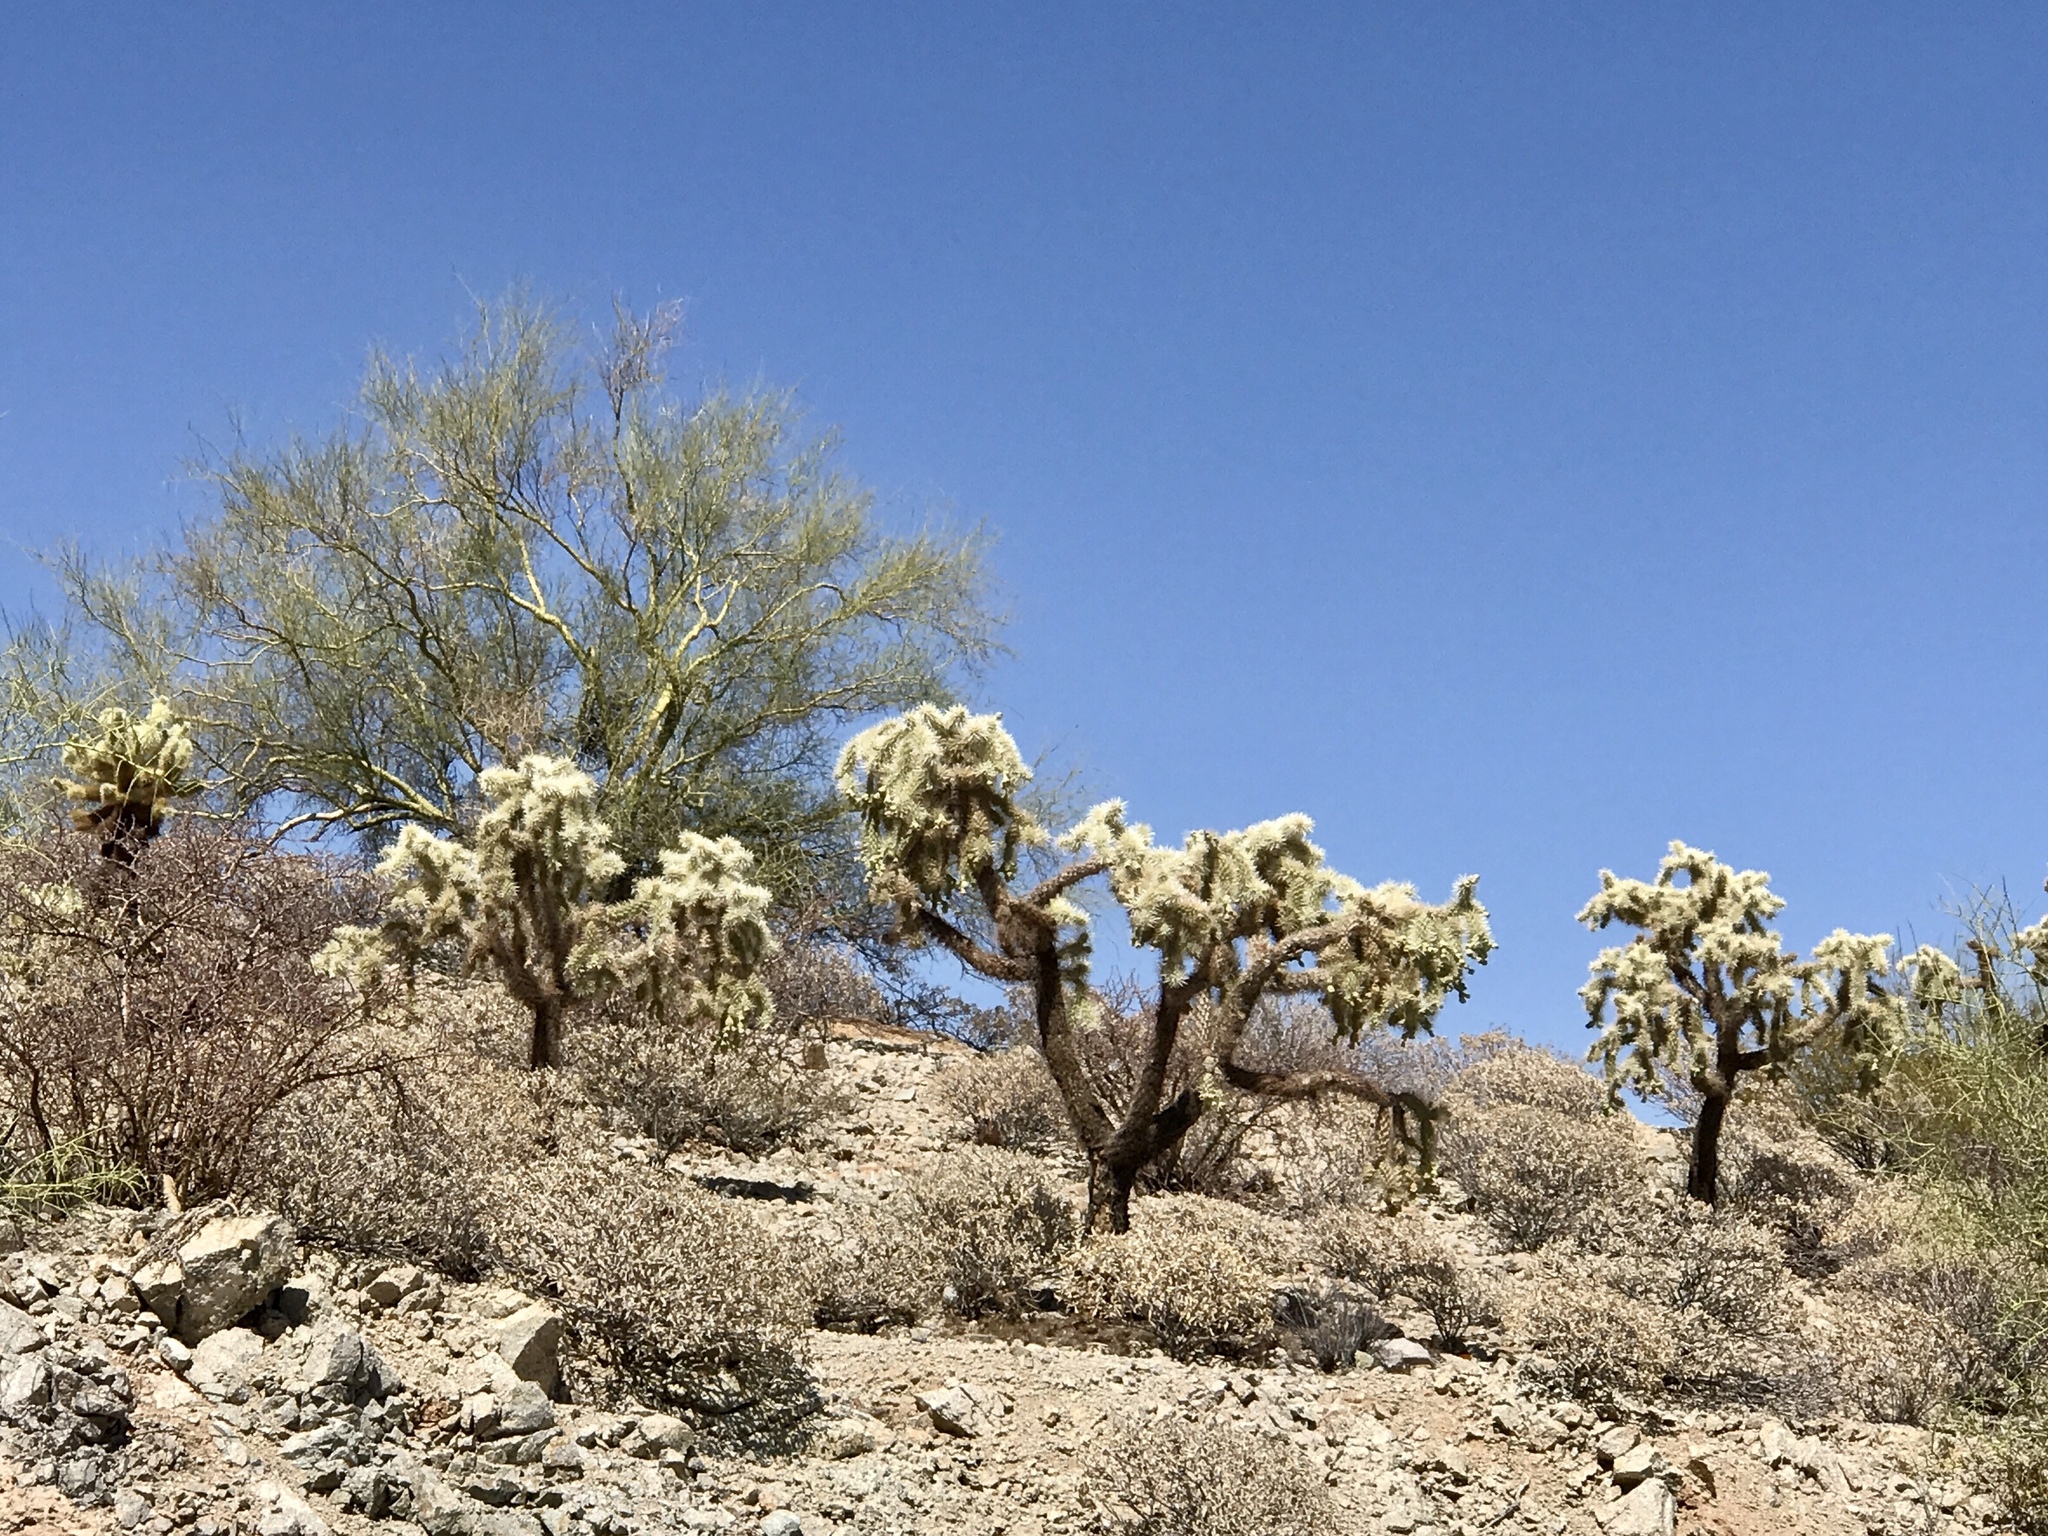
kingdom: Plantae
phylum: Tracheophyta
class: Magnoliopsida
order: Caryophyllales
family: Cactaceae
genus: Cylindropuntia
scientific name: Cylindropuntia fulgida
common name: Jumping cholla
